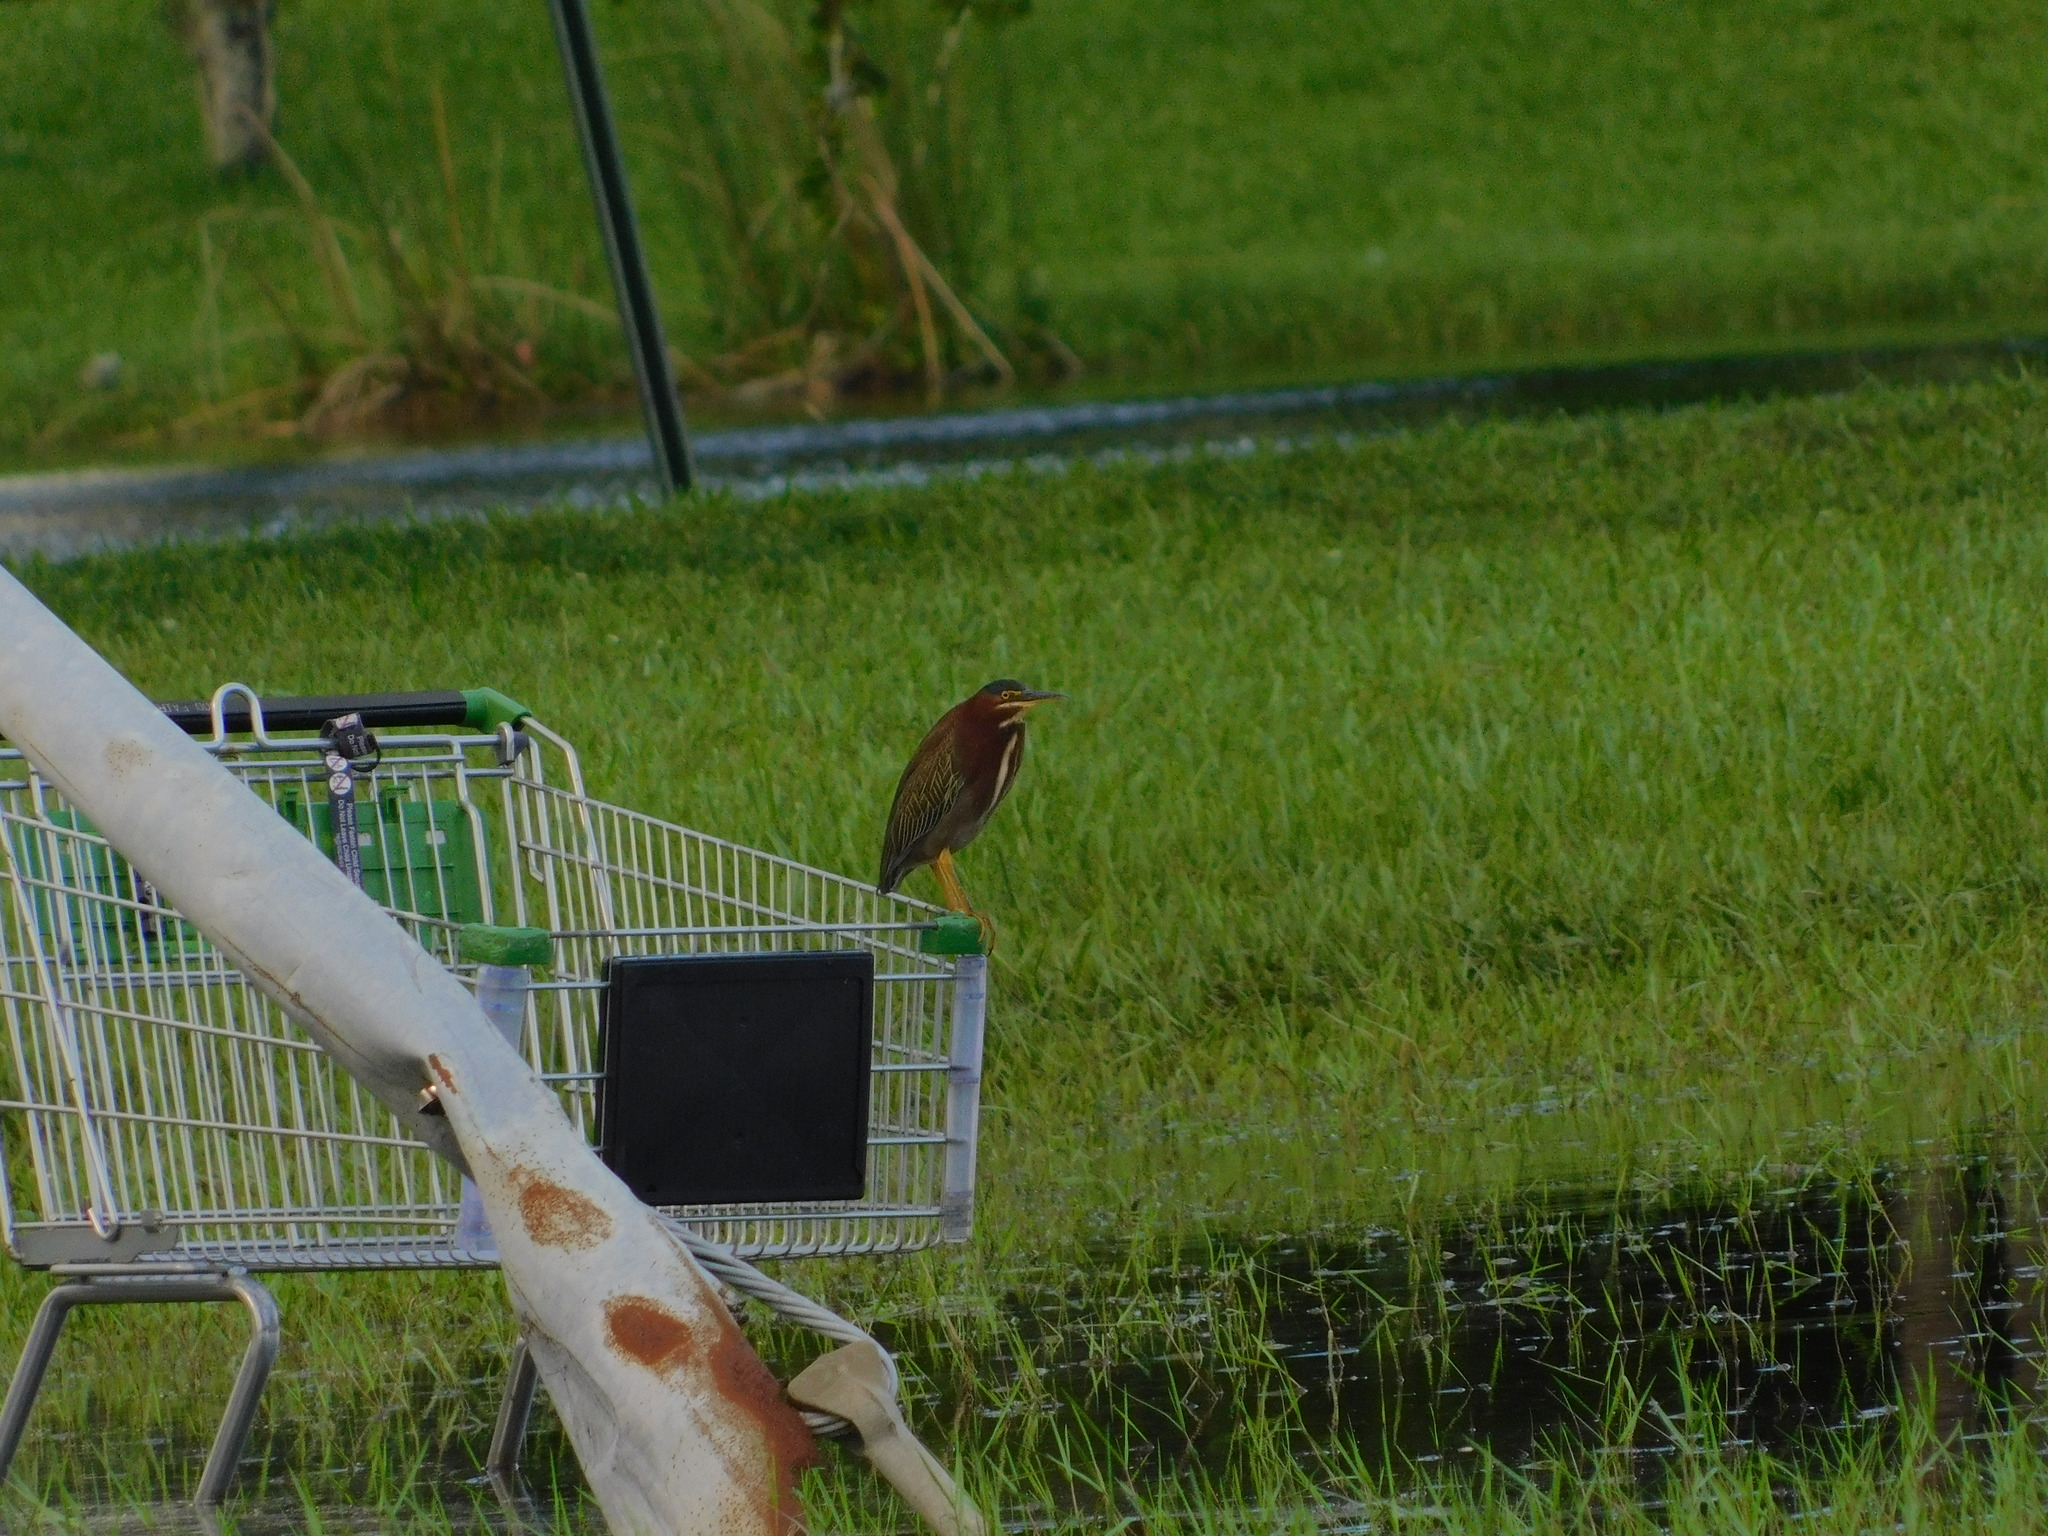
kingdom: Animalia
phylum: Chordata
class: Aves
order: Pelecaniformes
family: Ardeidae
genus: Butorides
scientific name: Butorides virescens
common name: Green heron
